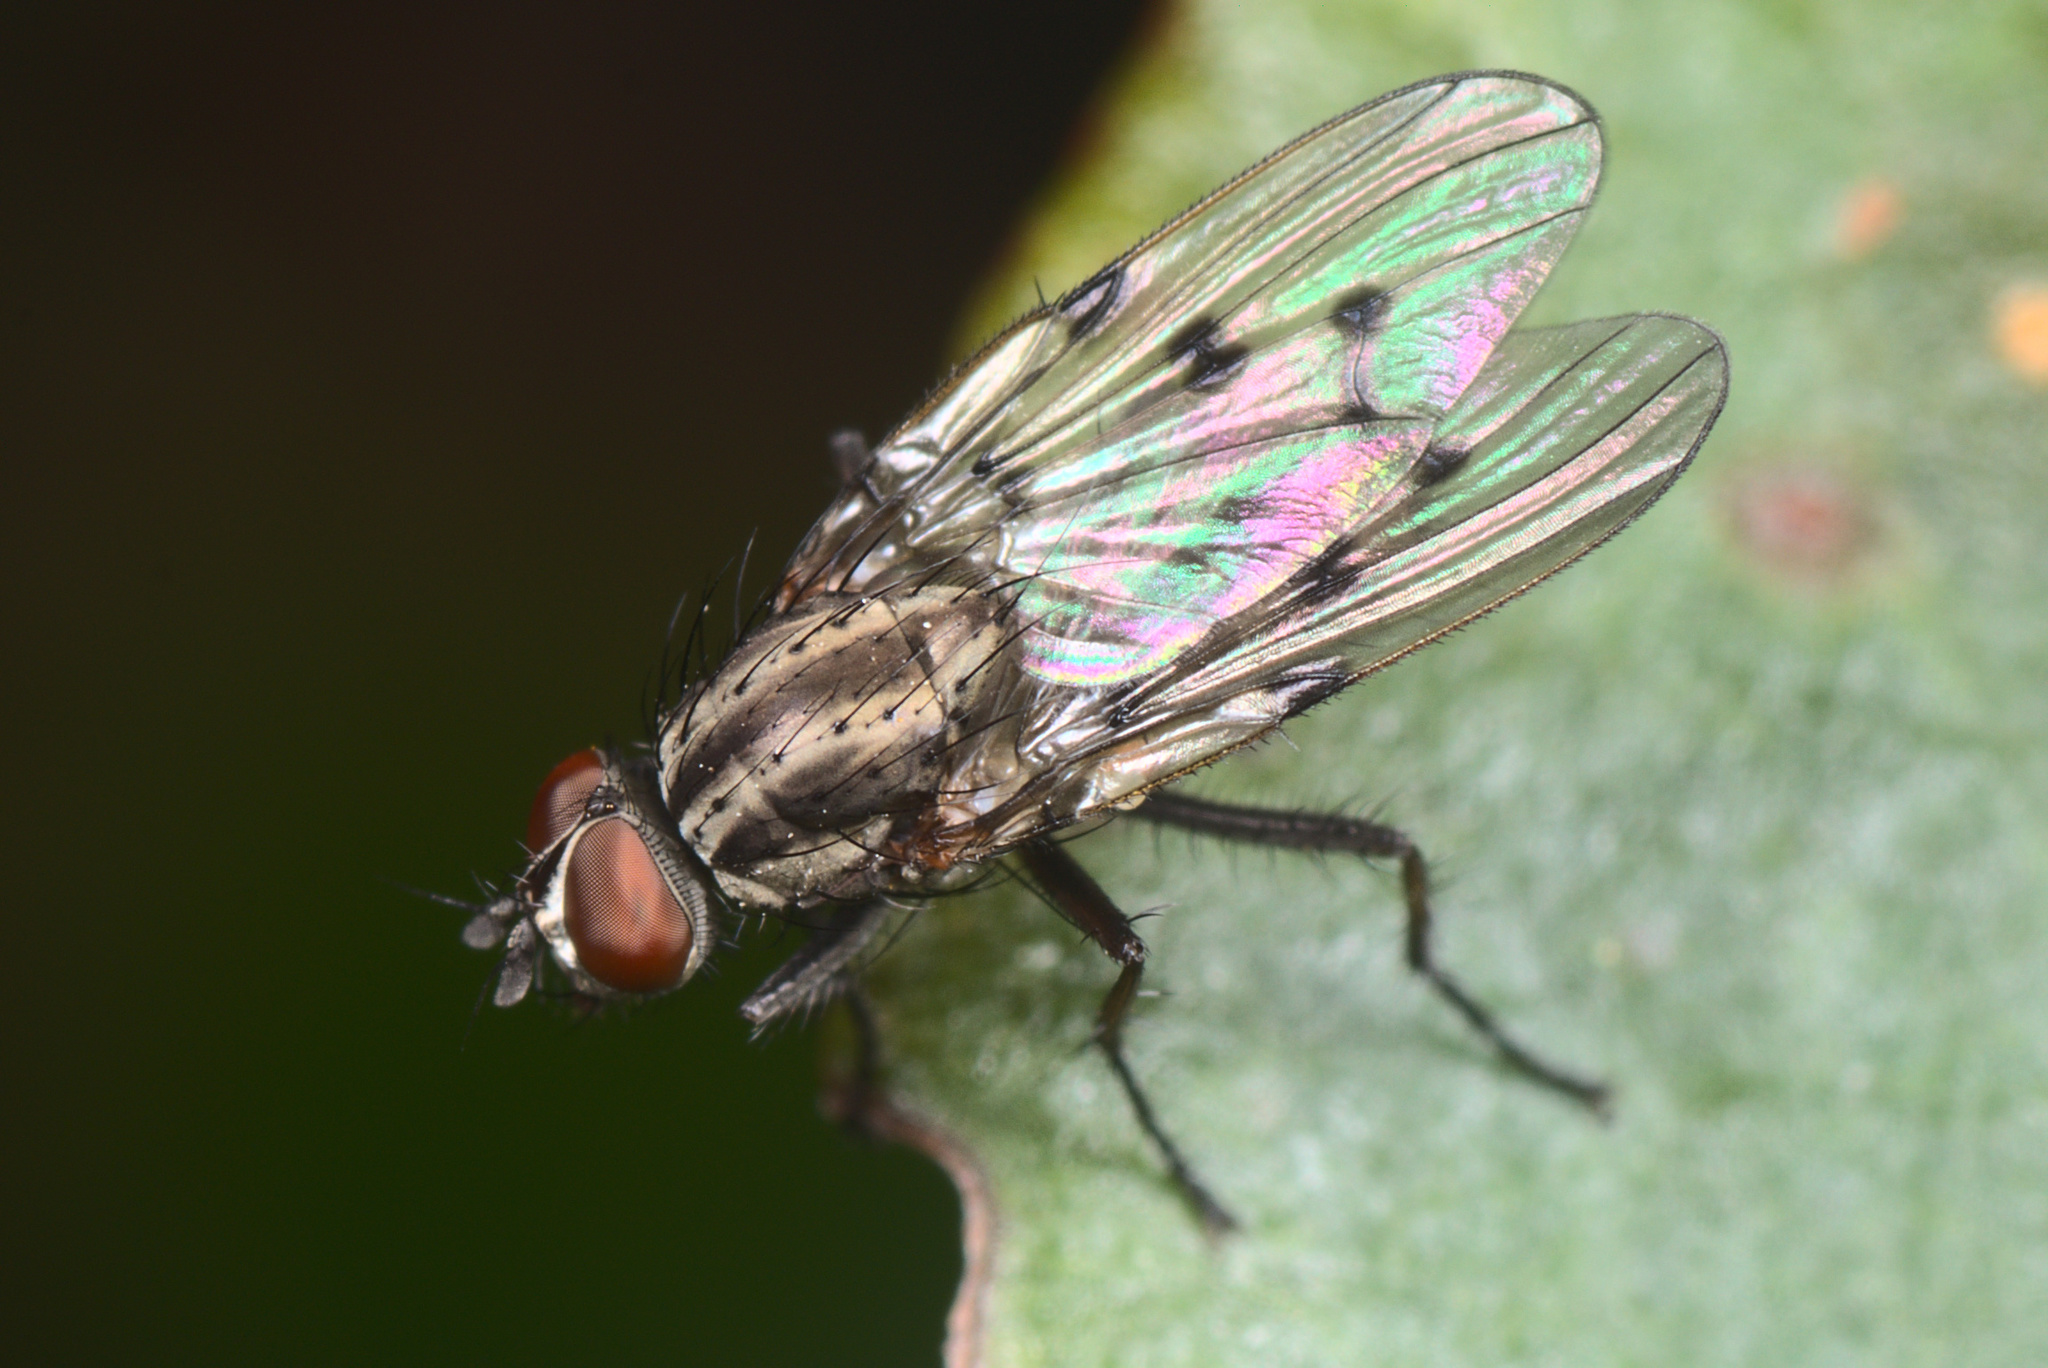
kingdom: Animalia
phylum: Arthropoda
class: Insecta
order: Diptera
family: Anthomyiidae
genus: Anthomyia
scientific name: Anthomyia punctipennis
